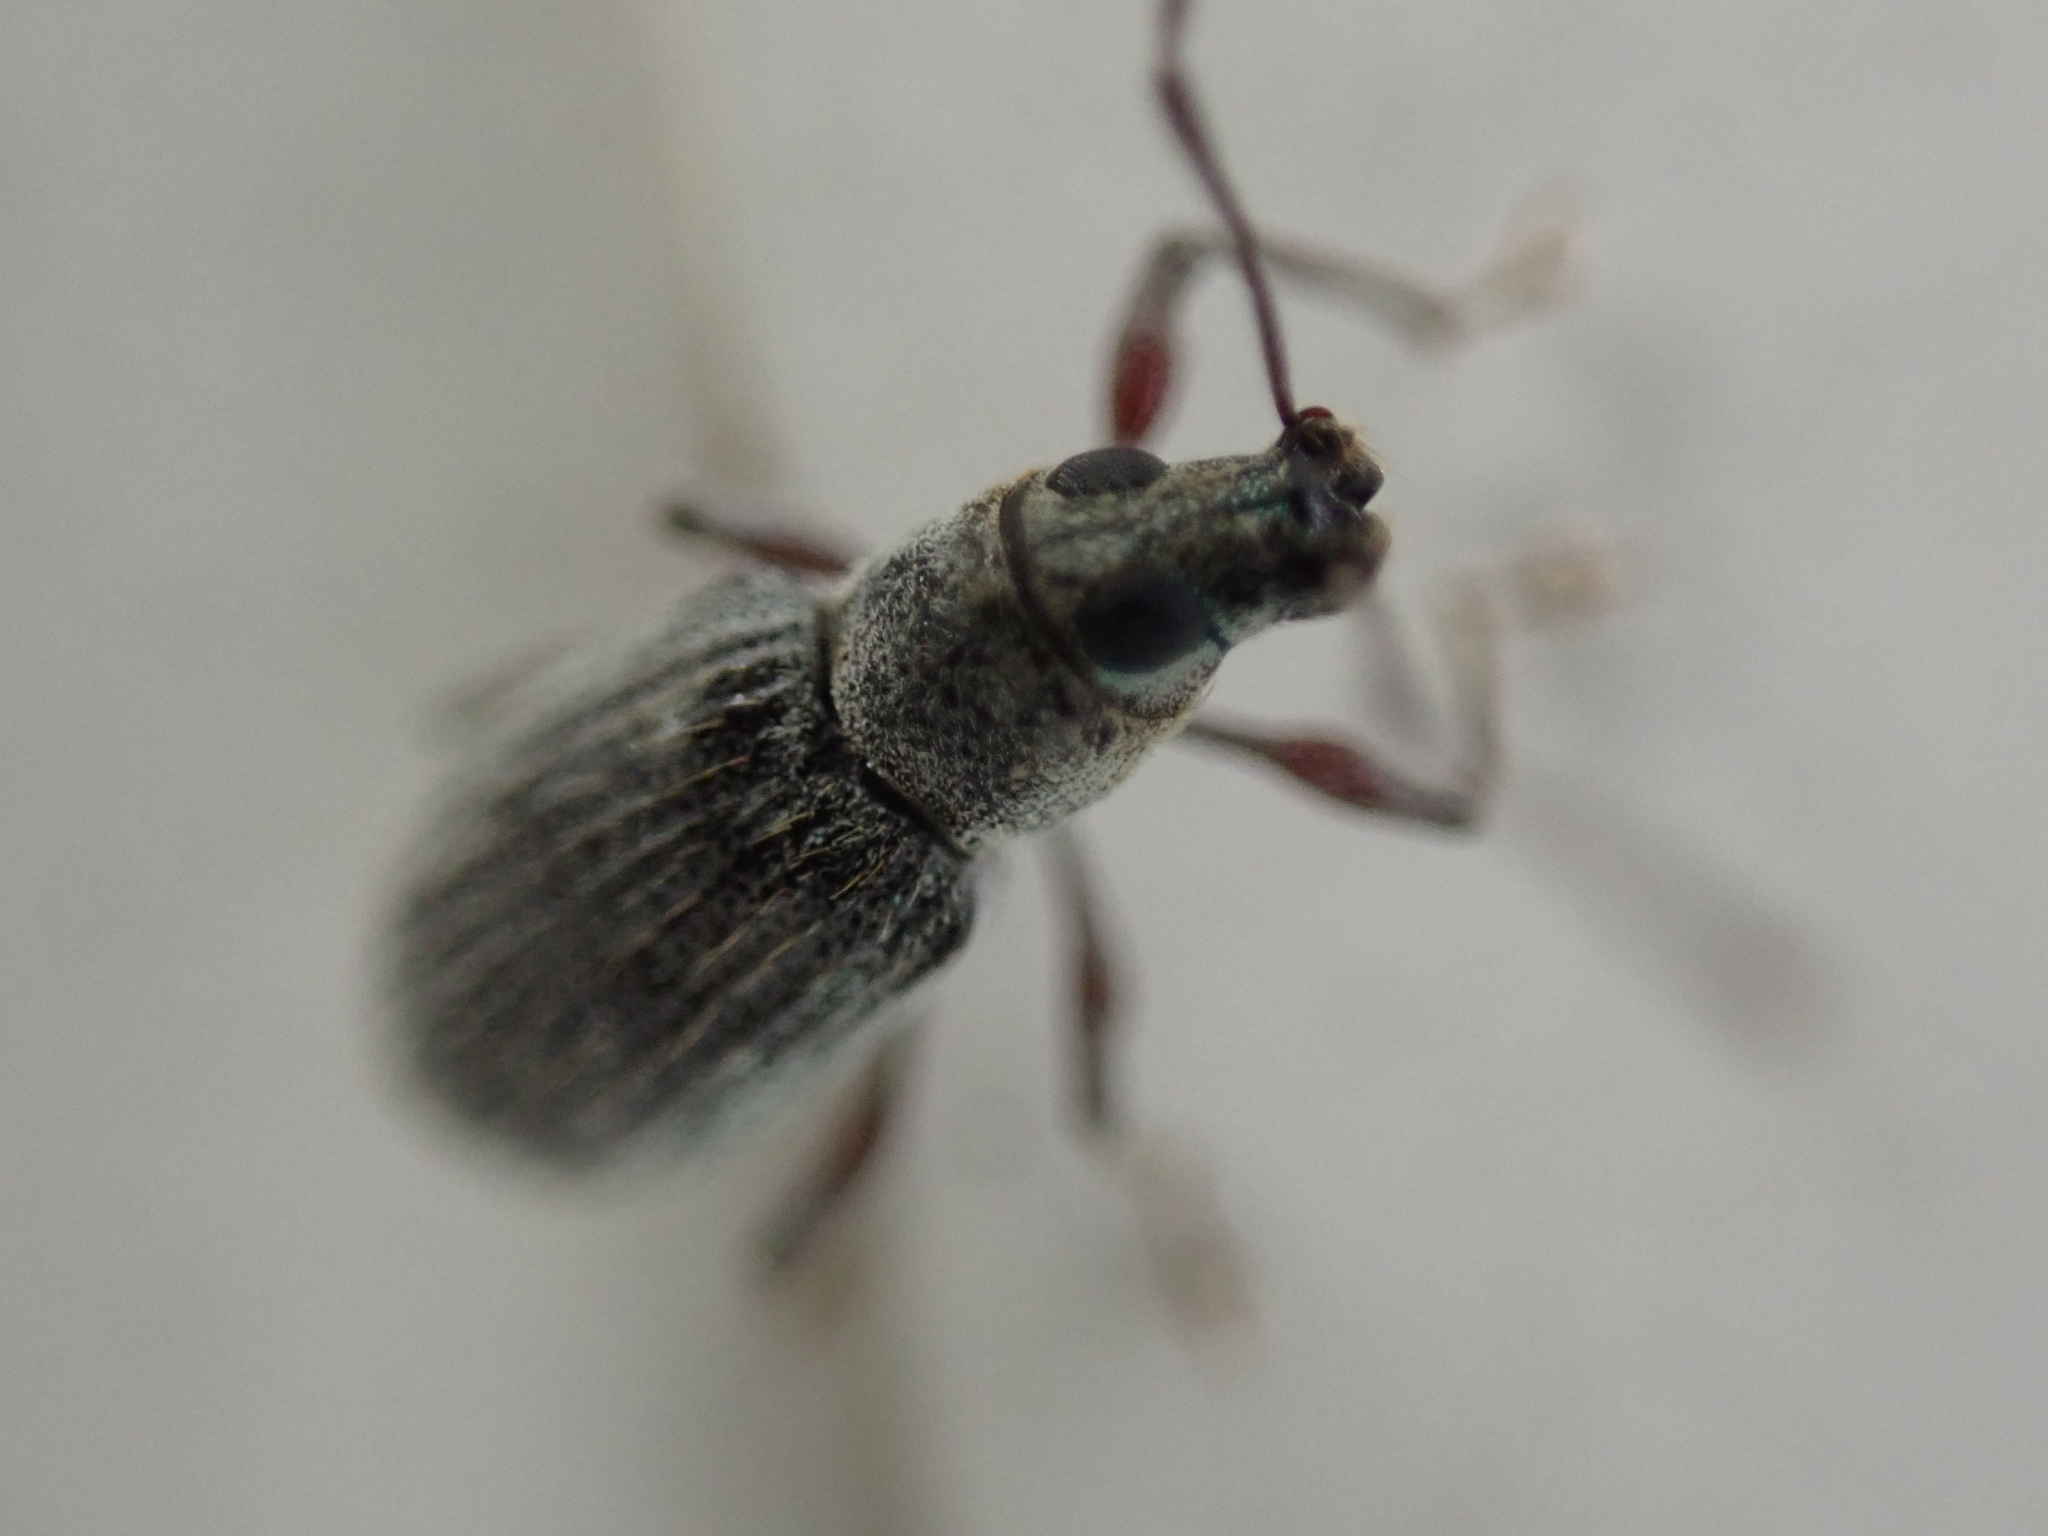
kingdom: Animalia
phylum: Arthropoda
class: Insecta
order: Coleoptera
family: Curculionidae
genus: Cyrtepistomus
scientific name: Cyrtepistomus castaneus
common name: Weevil
